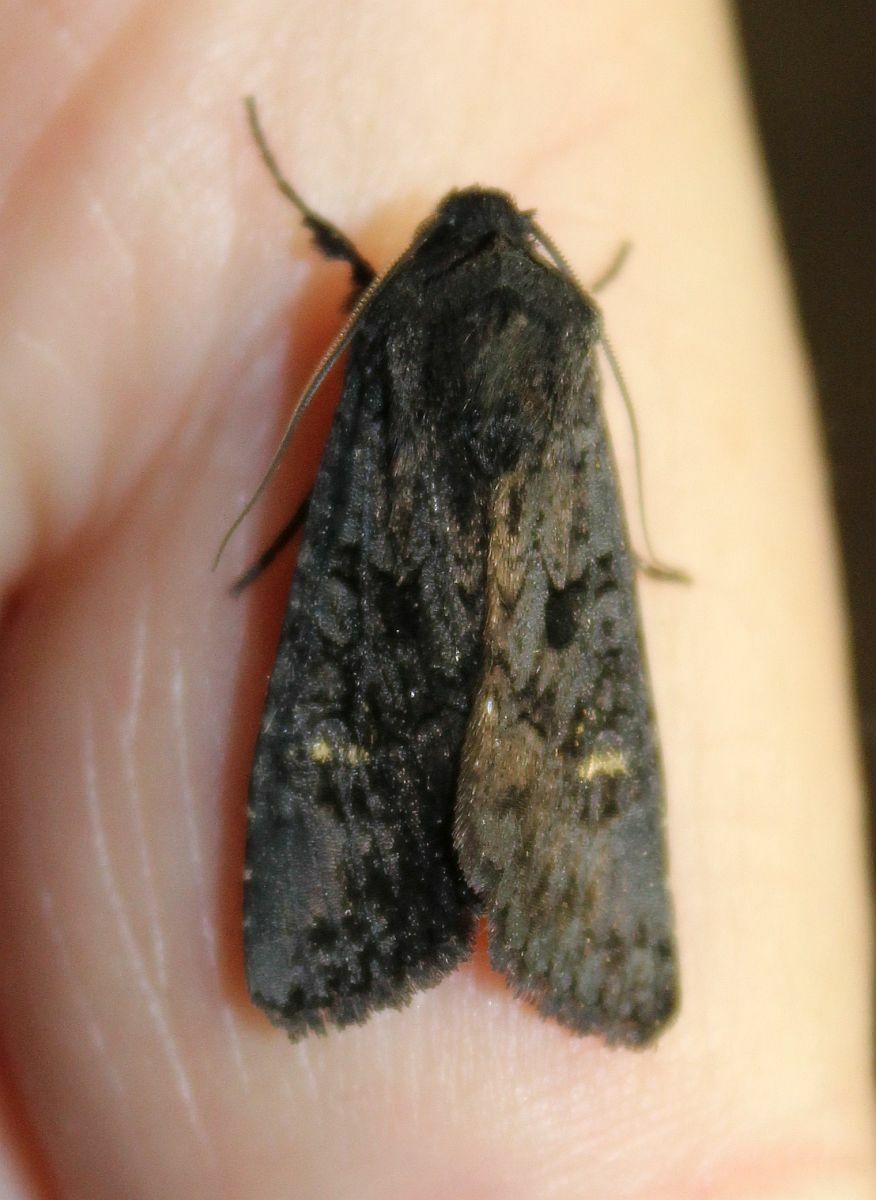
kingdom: Animalia
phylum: Arthropoda
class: Insecta
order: Lepidoptera
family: Noctuidae
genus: Aporophyla
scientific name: Aporophyla nigra
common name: Black rustic
